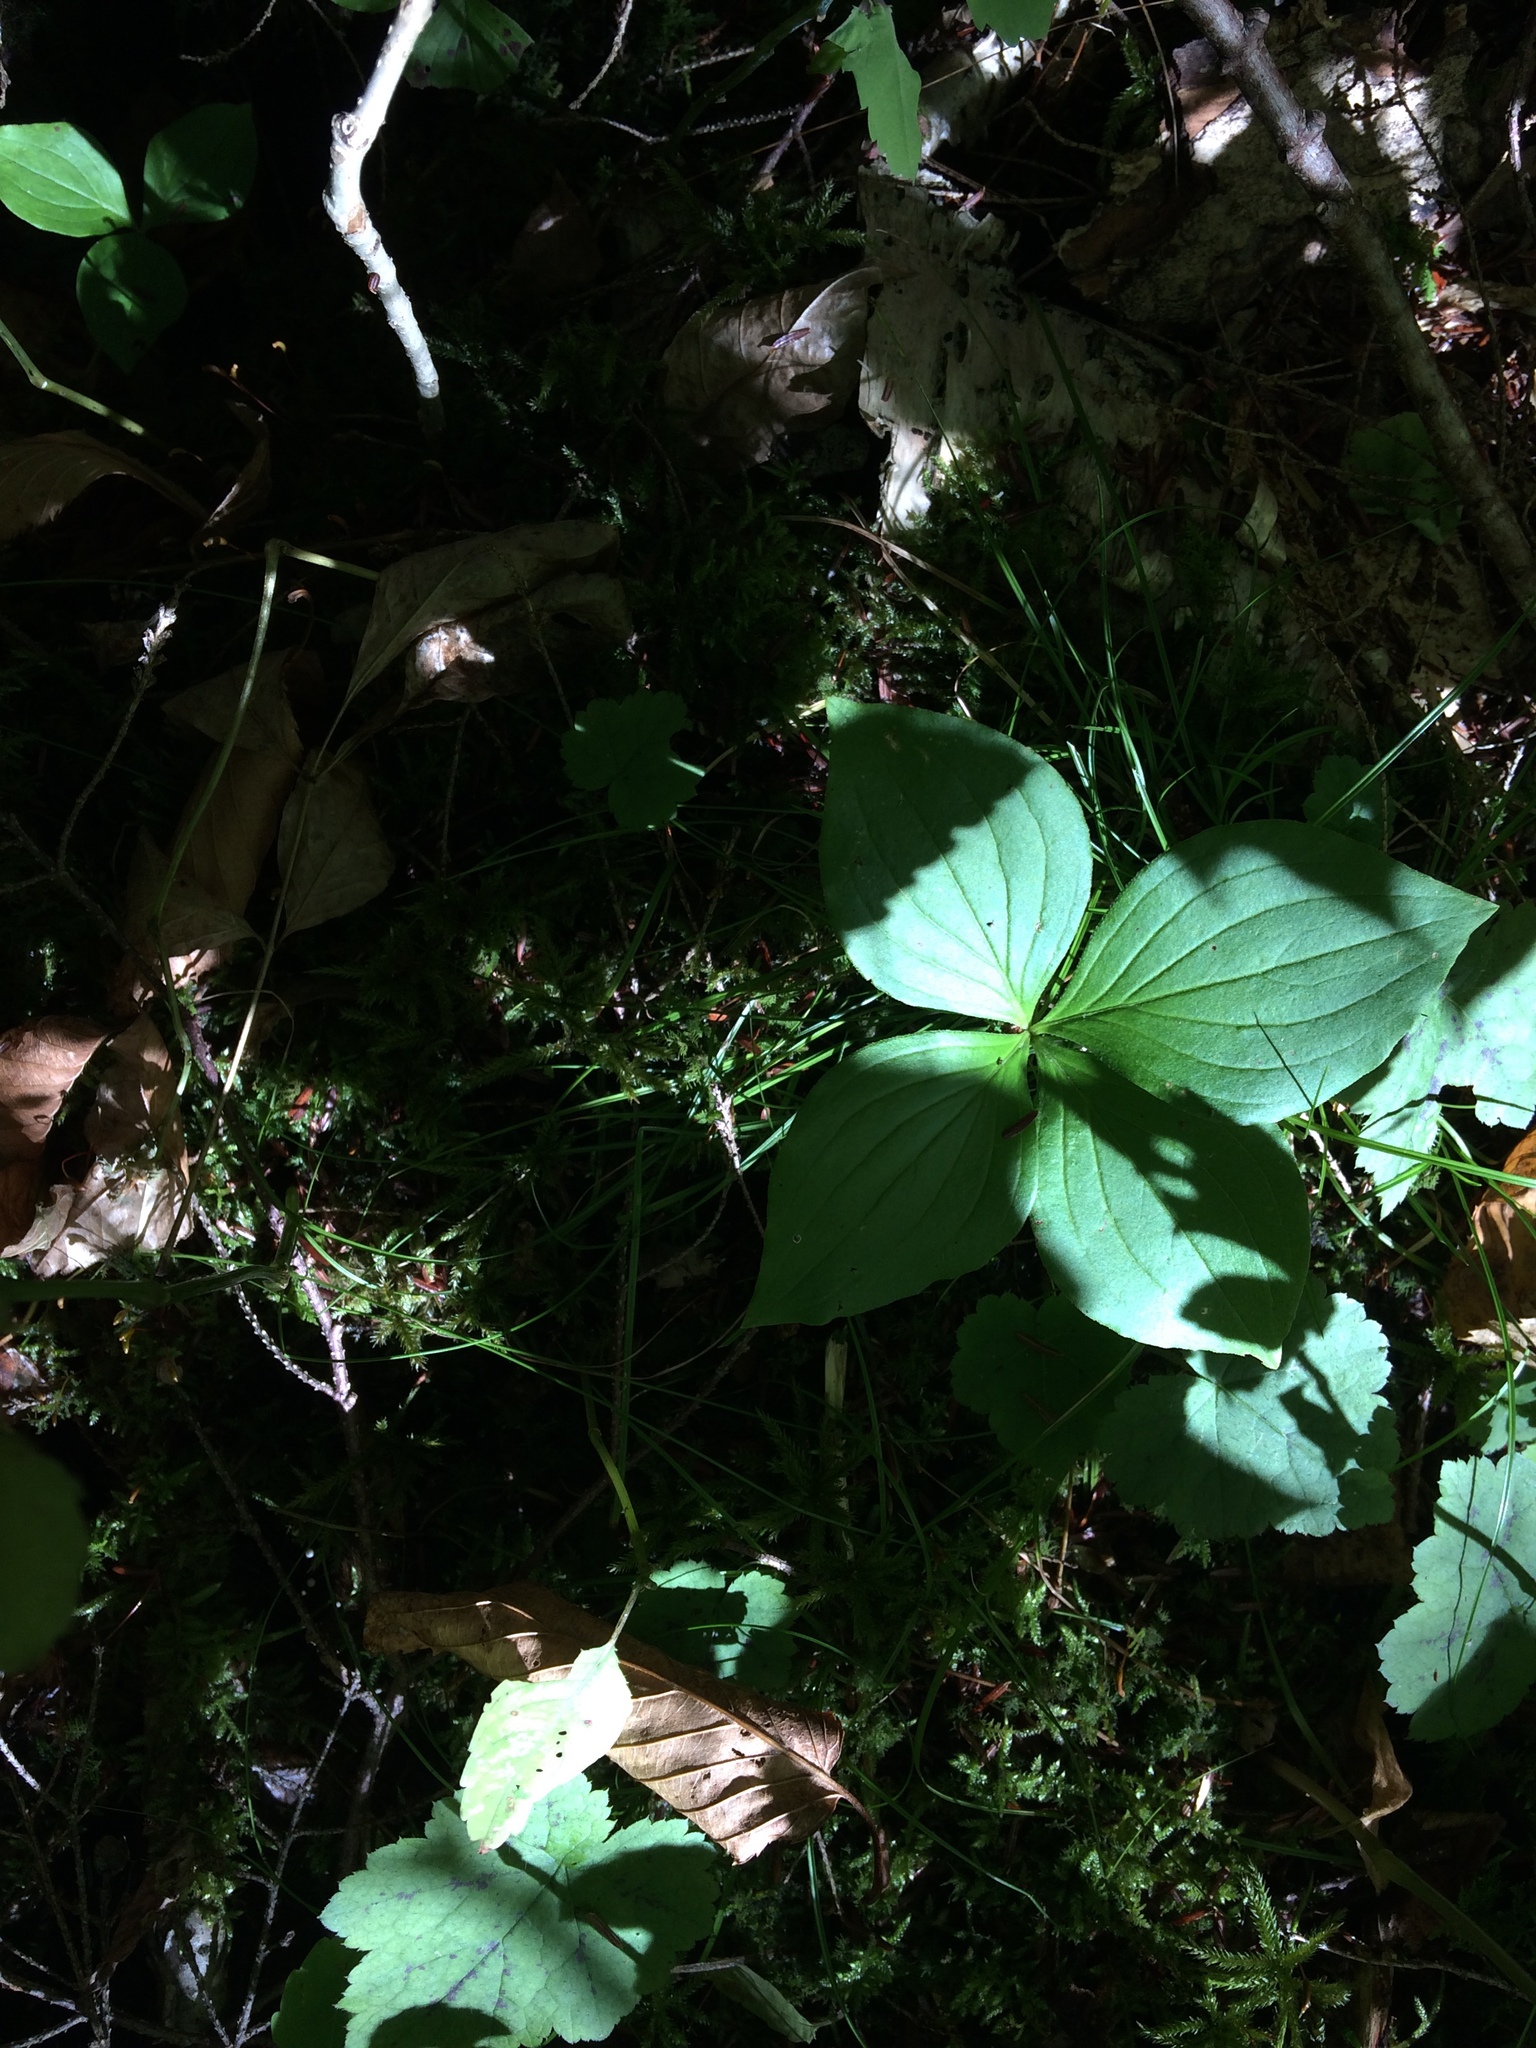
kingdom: Plantae
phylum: Tracheophyta
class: Magnoliopsida
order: Cornales
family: Cornaceae
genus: Cornus
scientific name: Cornus canadensis
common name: Creeping dogwood
